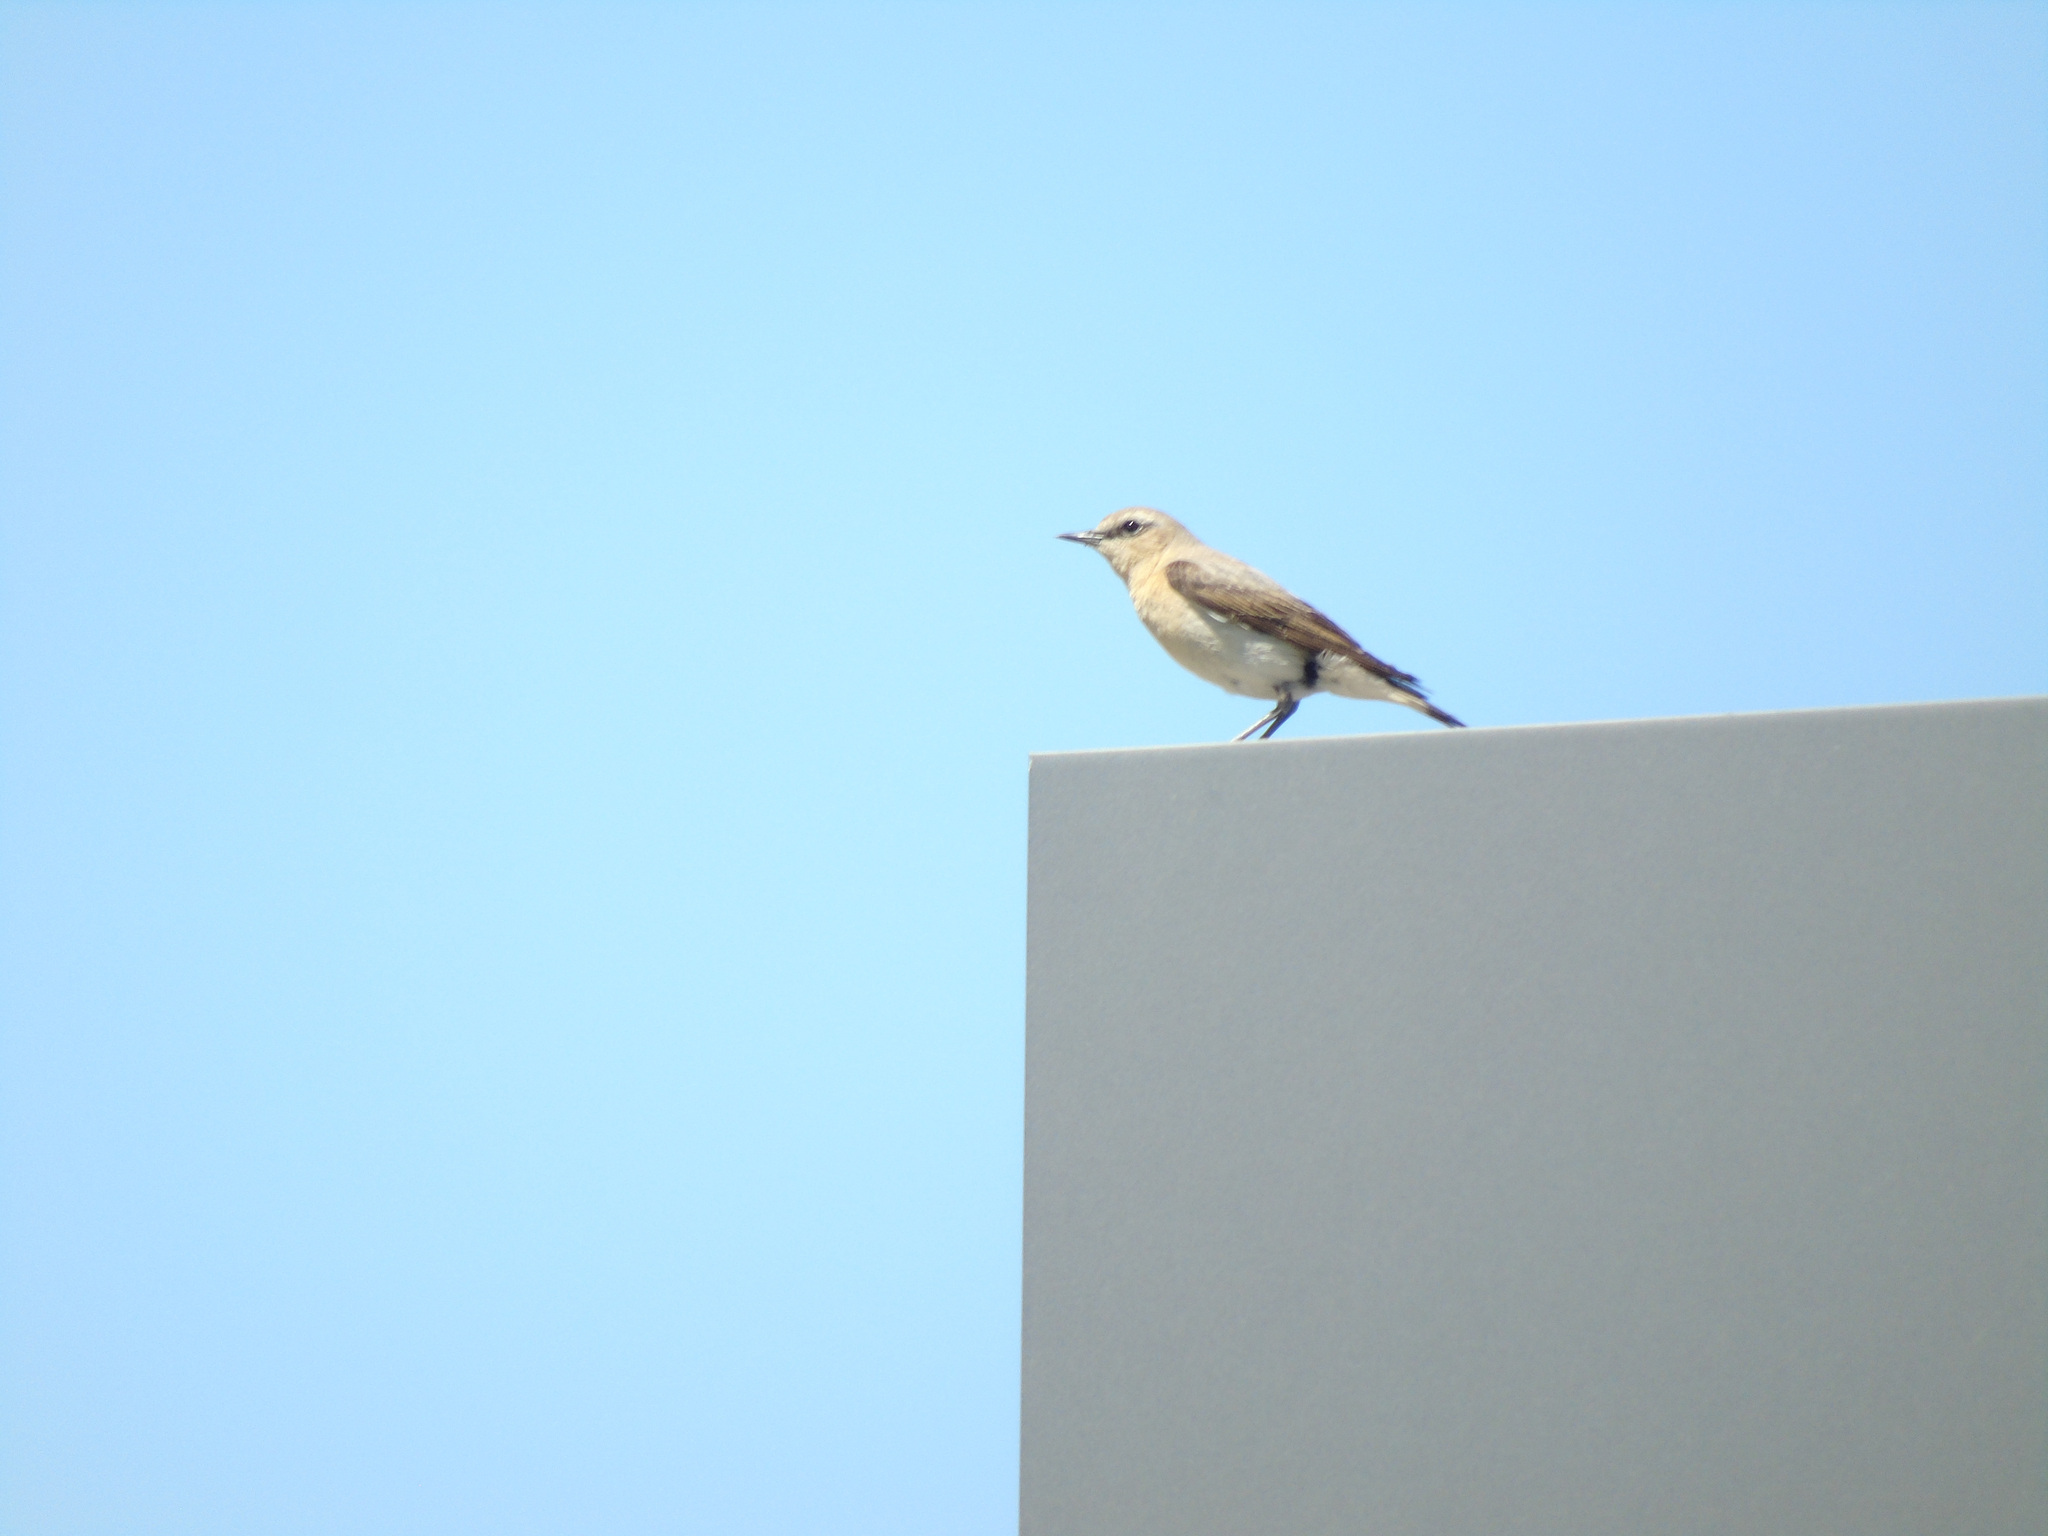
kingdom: Animalia
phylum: Chordata
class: Aves
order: Passeriformes
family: Muscicapidae
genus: Oenanthe
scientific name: Oenanthe oenanthe
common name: Northern wheatear
